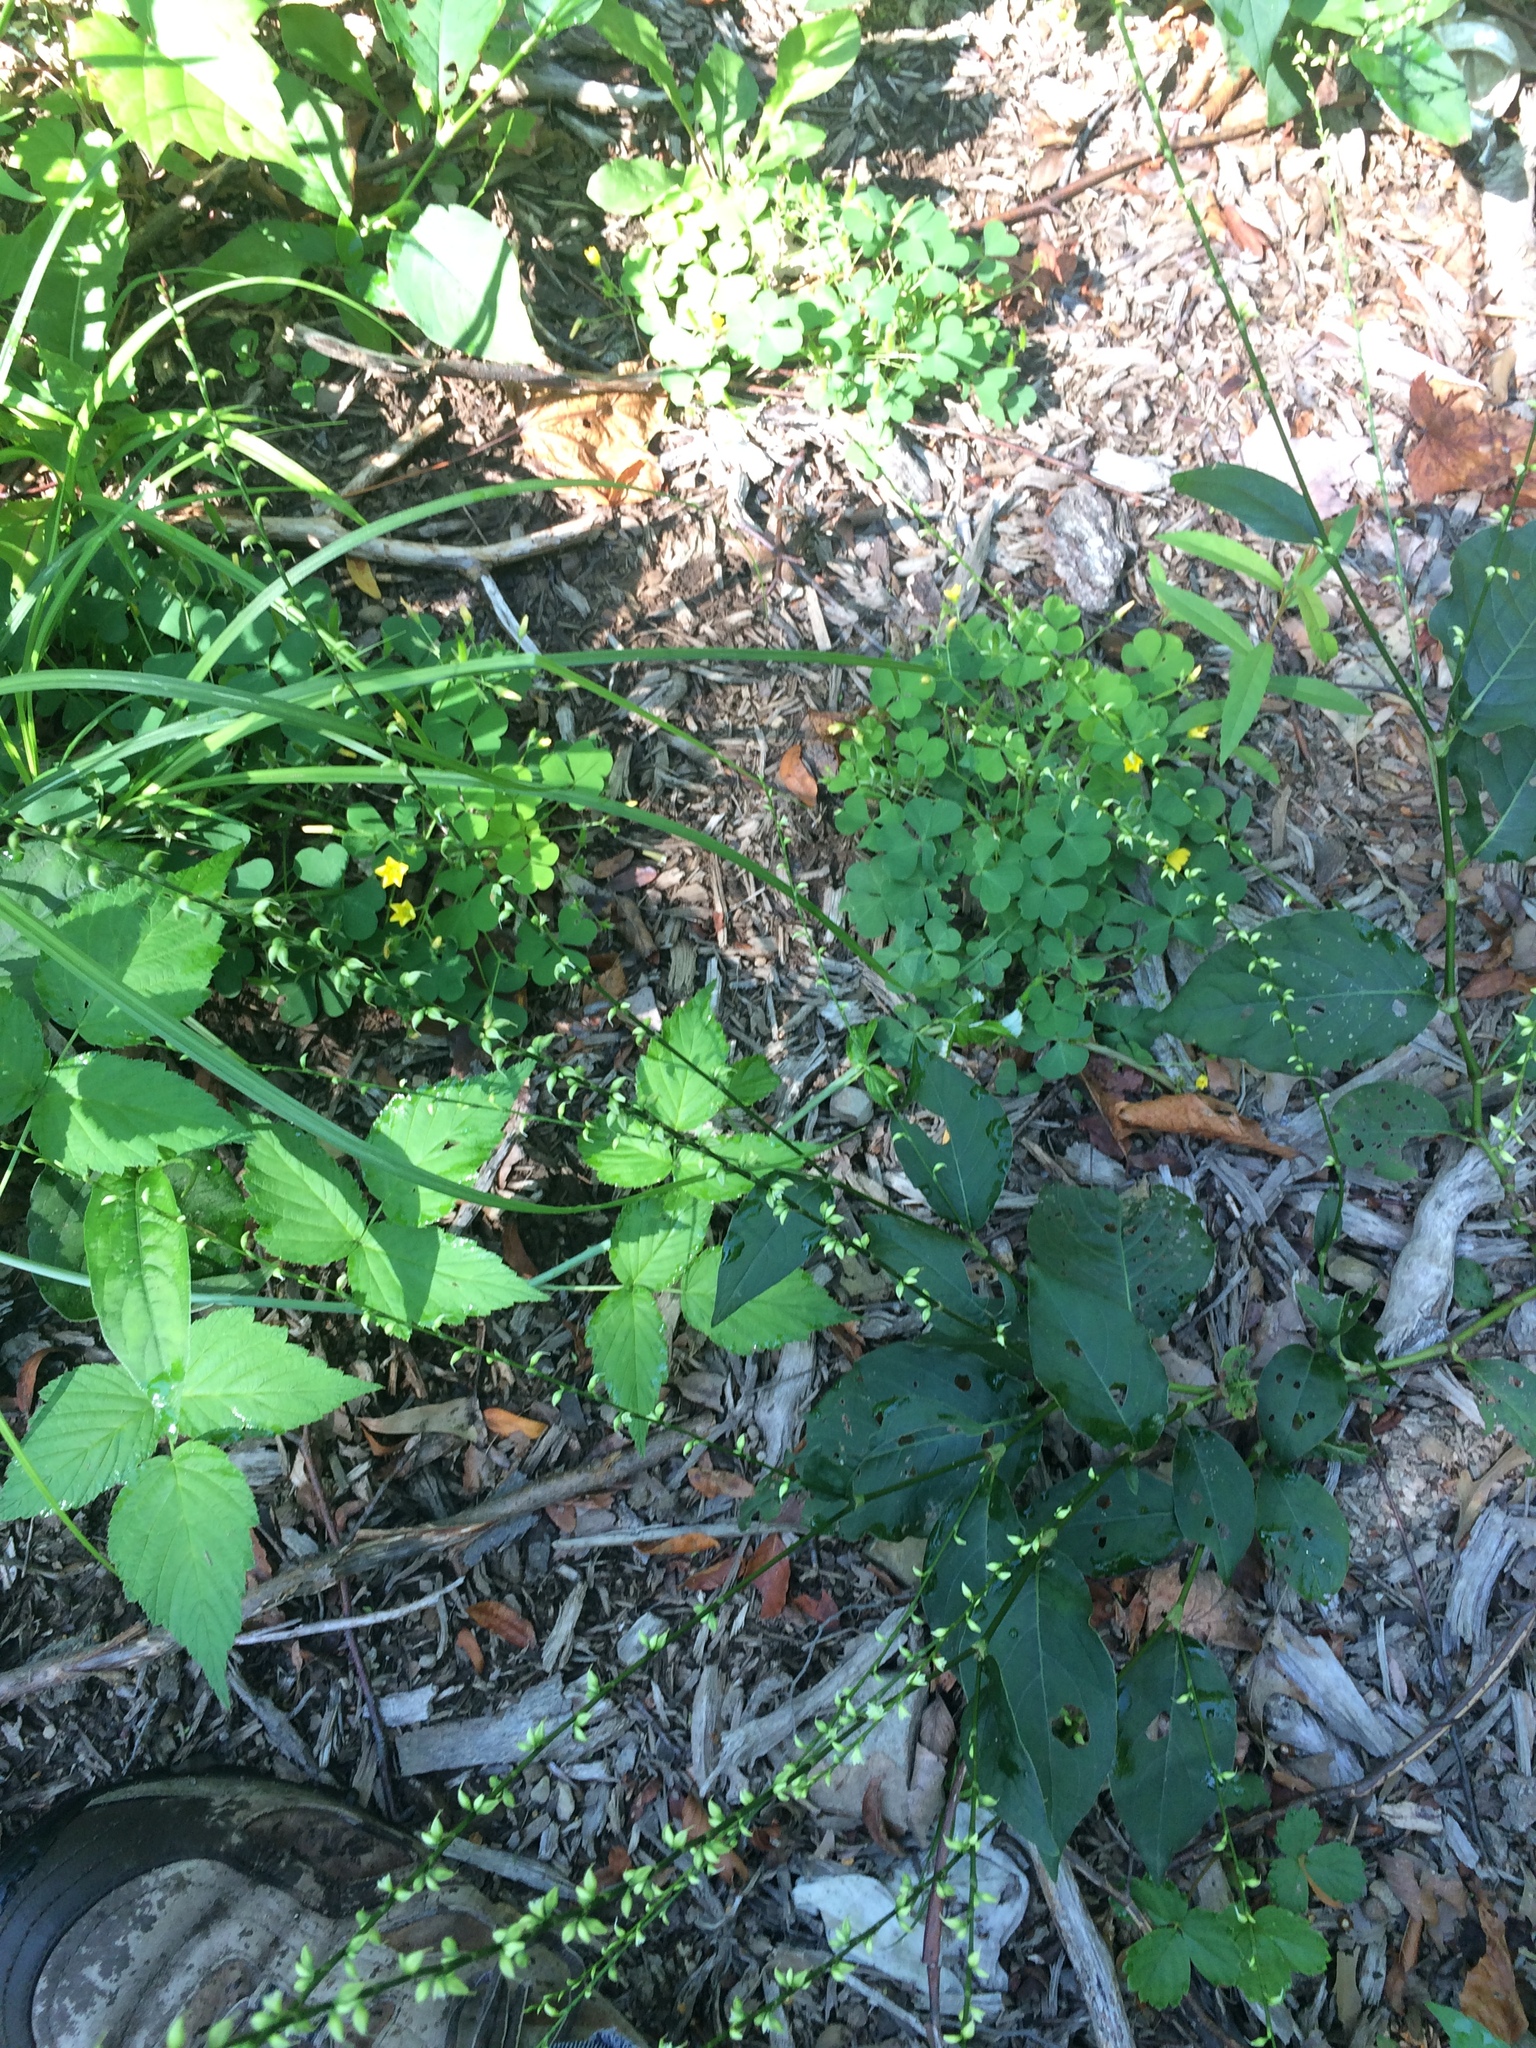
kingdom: Plantae
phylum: Tracheophyta
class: Magnoliopsida
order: Caryophyllales
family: Polygonaceae
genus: Persicaria
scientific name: Persicaria virginiana
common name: Jumpseed
